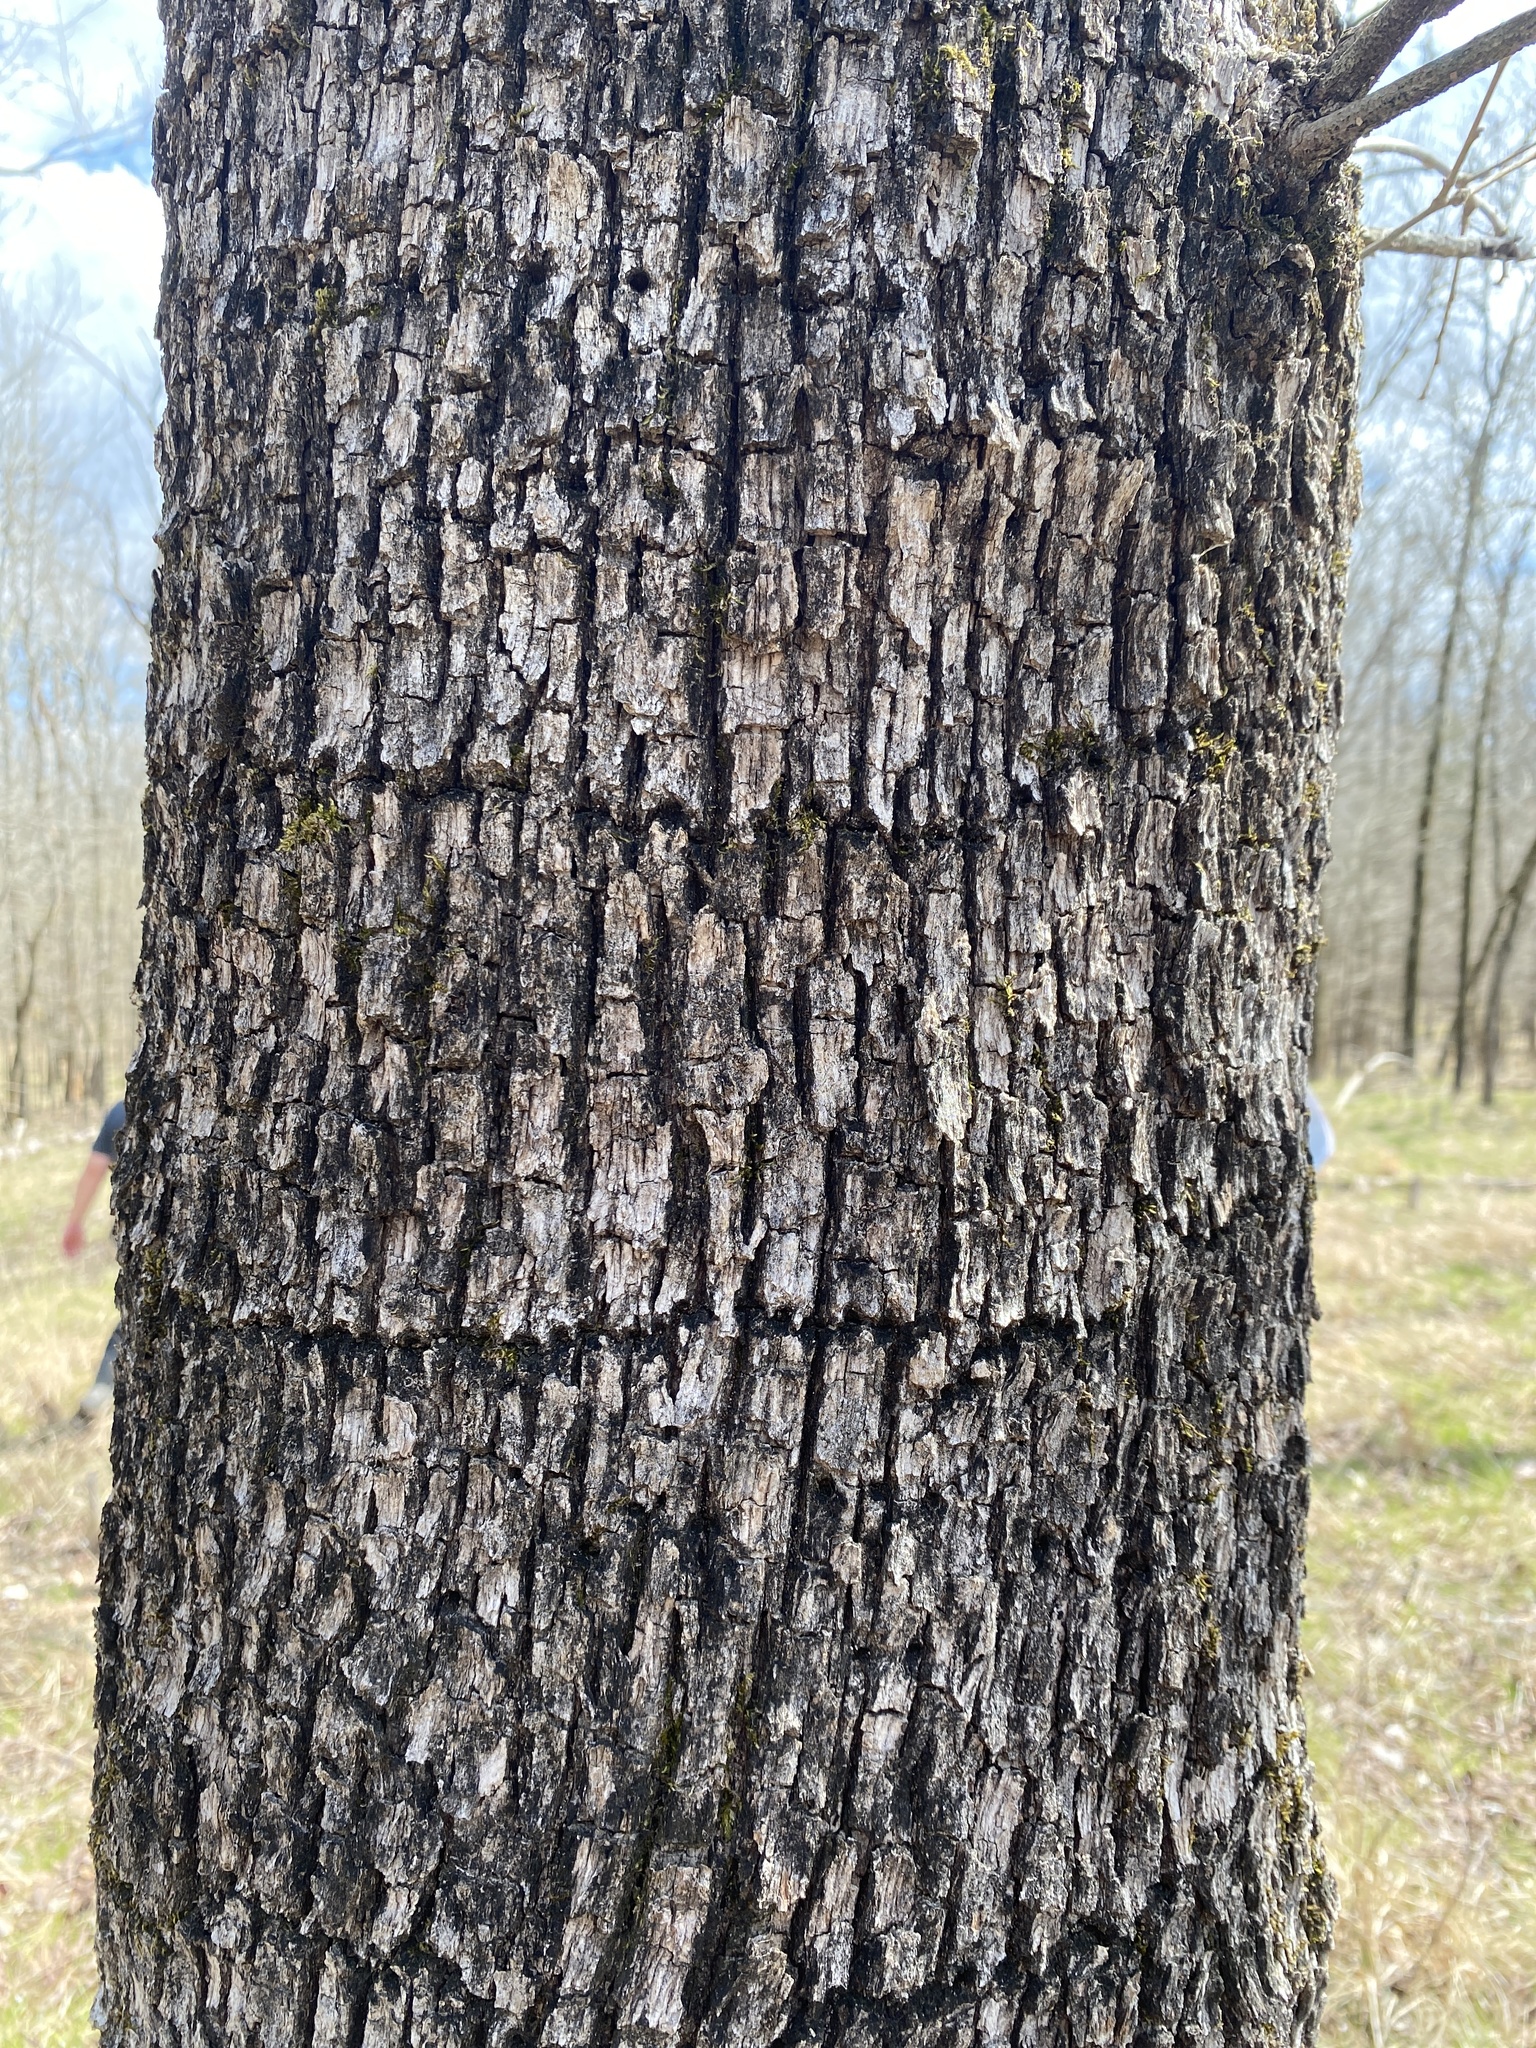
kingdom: Animalia
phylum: Chordata
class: Aves
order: Piciformes
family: Picidae
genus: Sphyrapicus
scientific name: Sphyrapicus varius
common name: Yellow-bellied sapsucker
